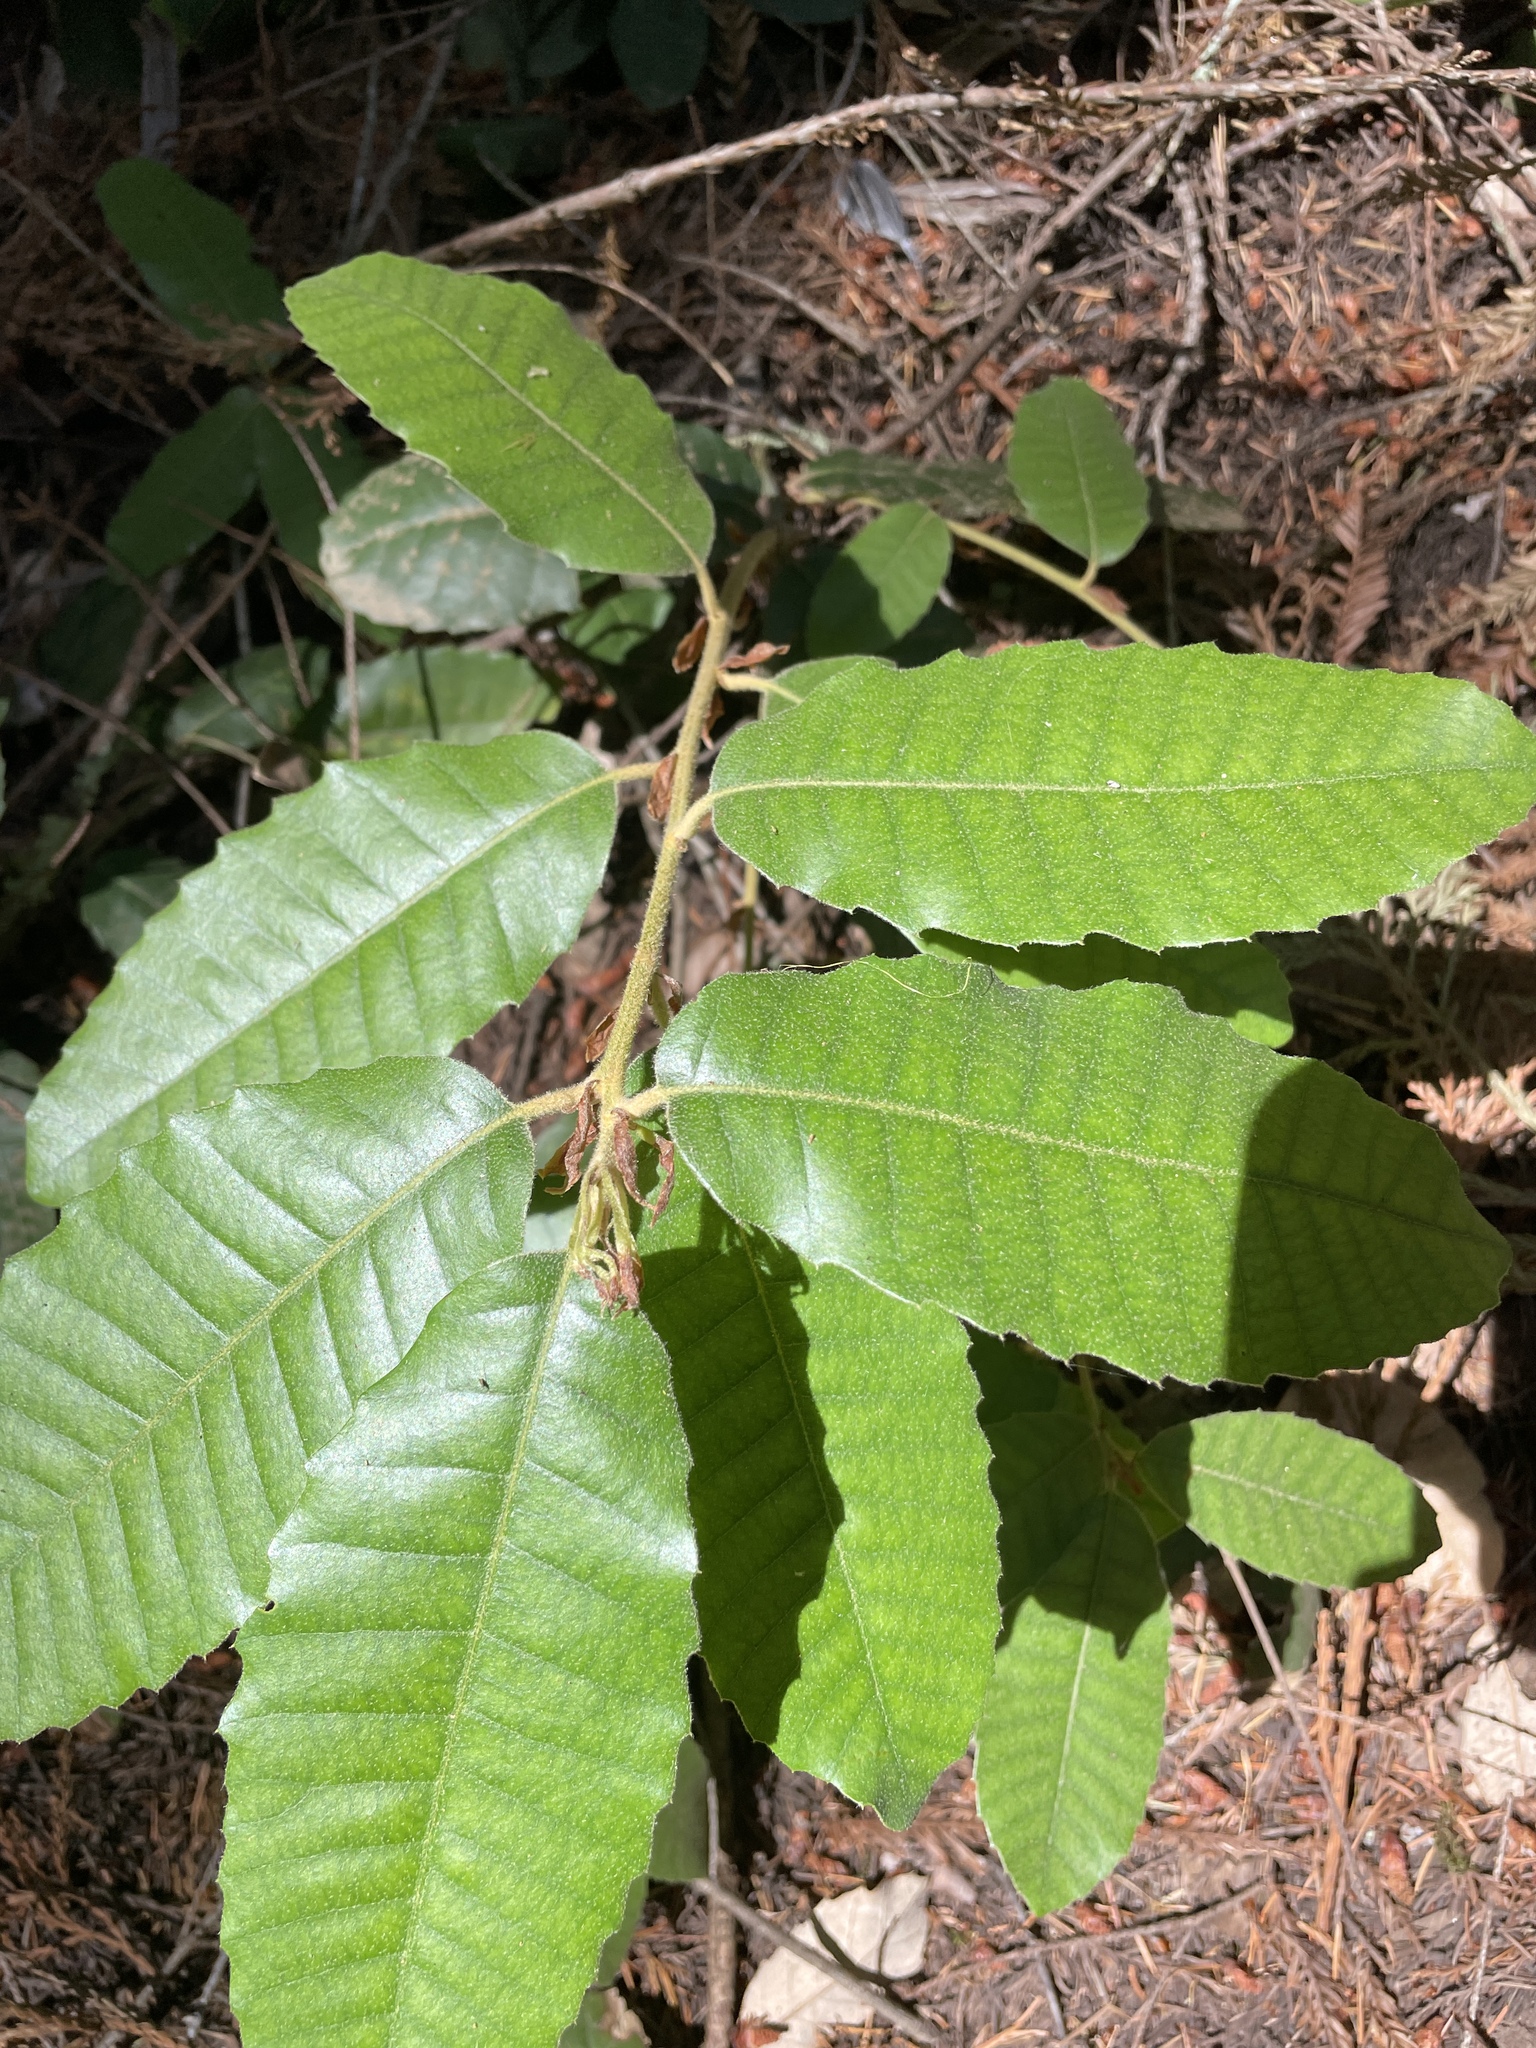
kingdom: Plantae
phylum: Tracheophyta
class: Magnoliopsida
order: Fagales
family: Fagaceae
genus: Notholithocarpus
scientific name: Notholithocarpus densiflorus
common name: Tan bark oak
